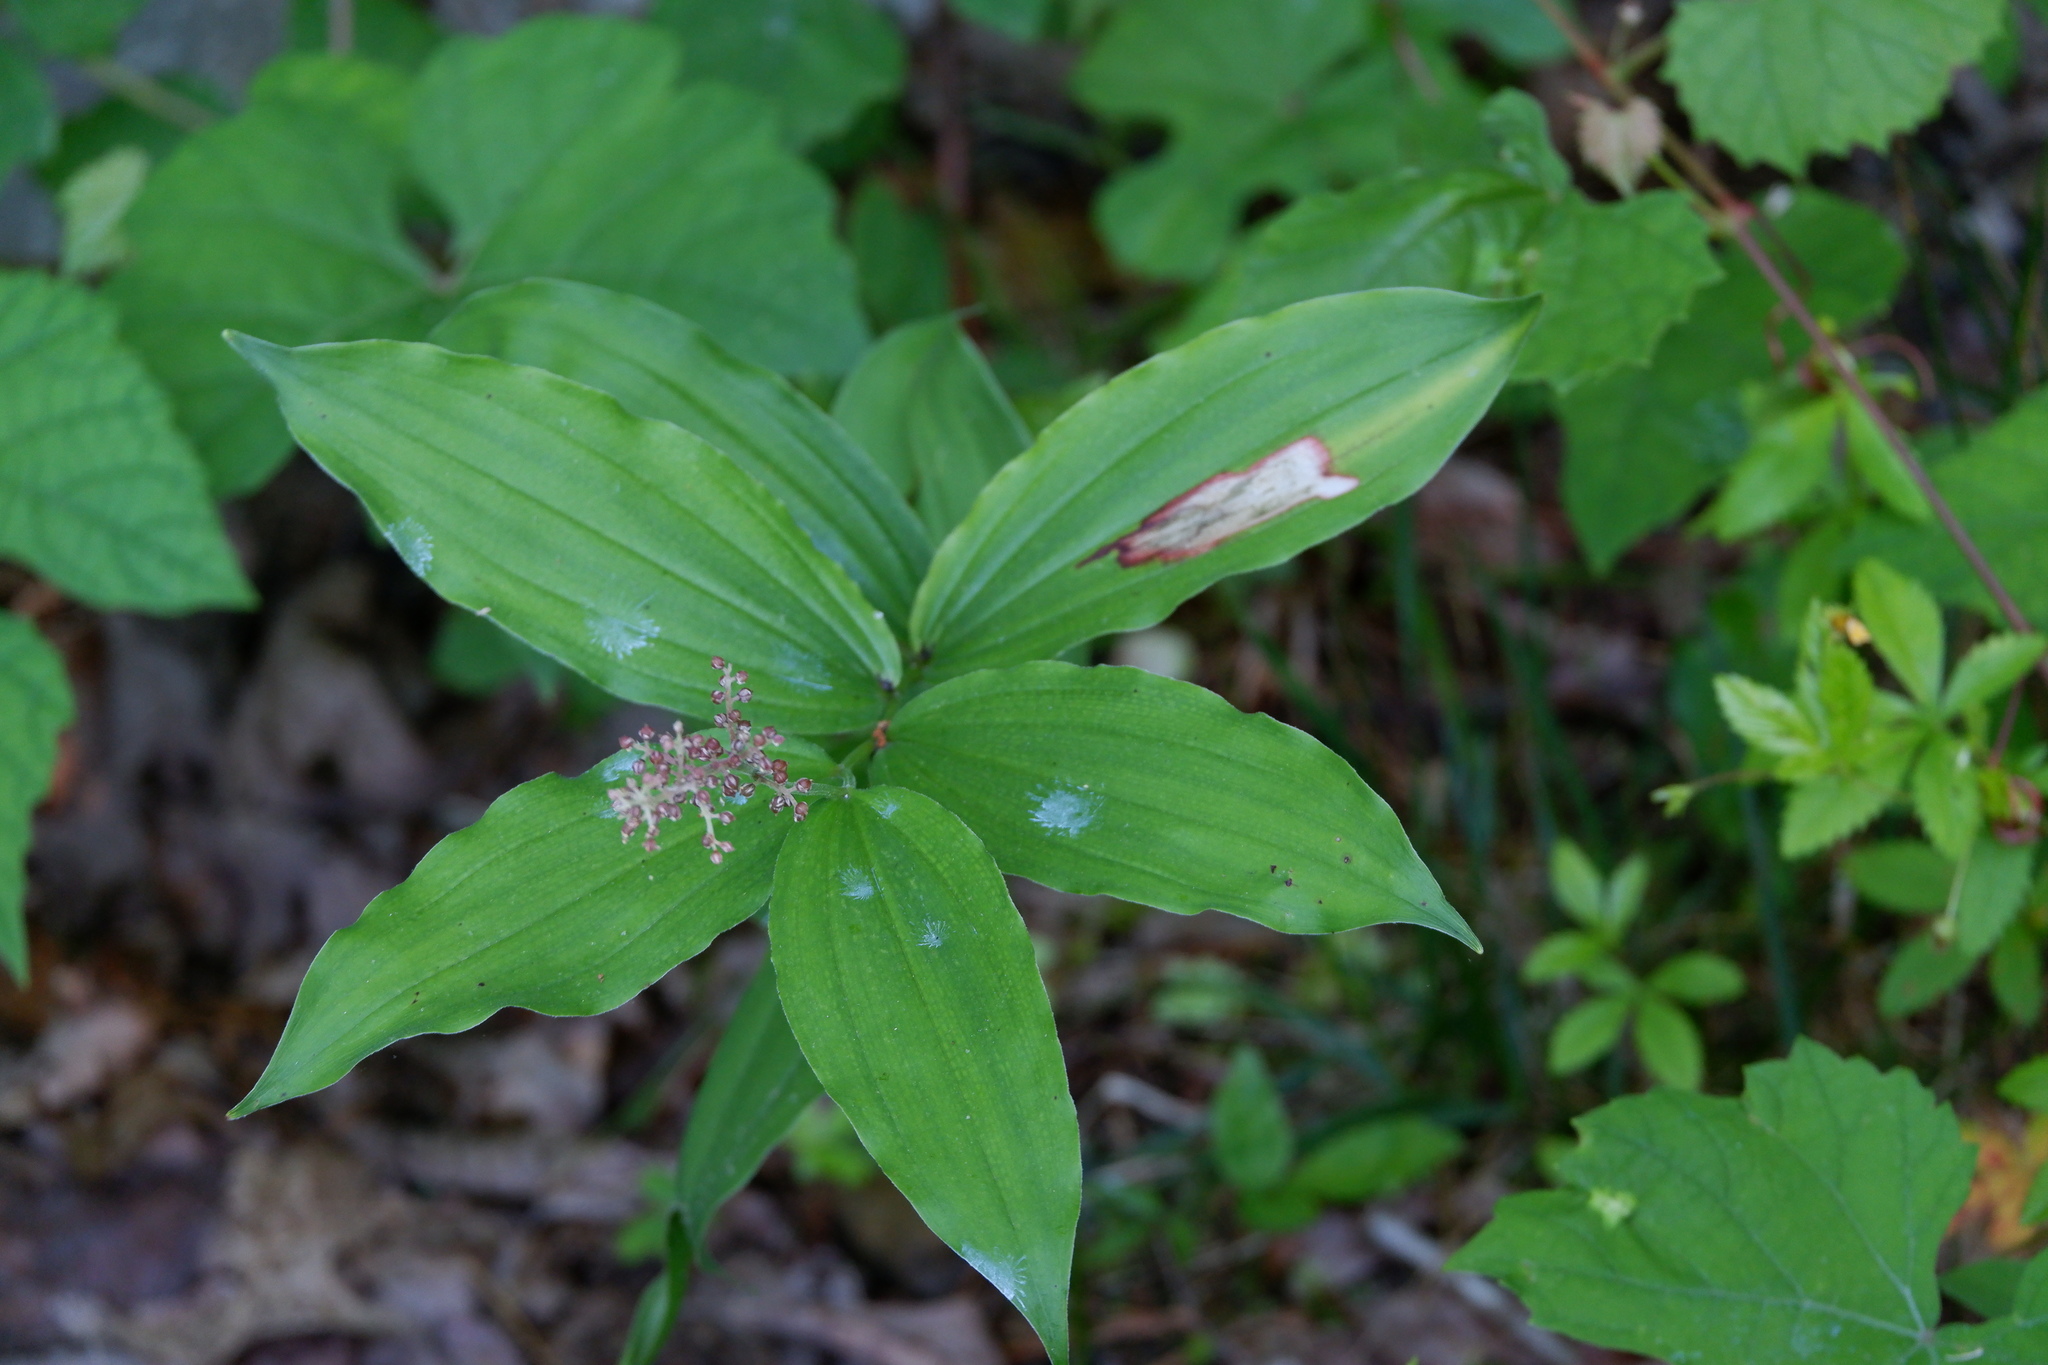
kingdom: Plantae
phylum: Tracheophyta
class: Liliopsida
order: Asparagales
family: Asparagaceae
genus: Maianthemum
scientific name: Maianthemum racemosum
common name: False spikenard
